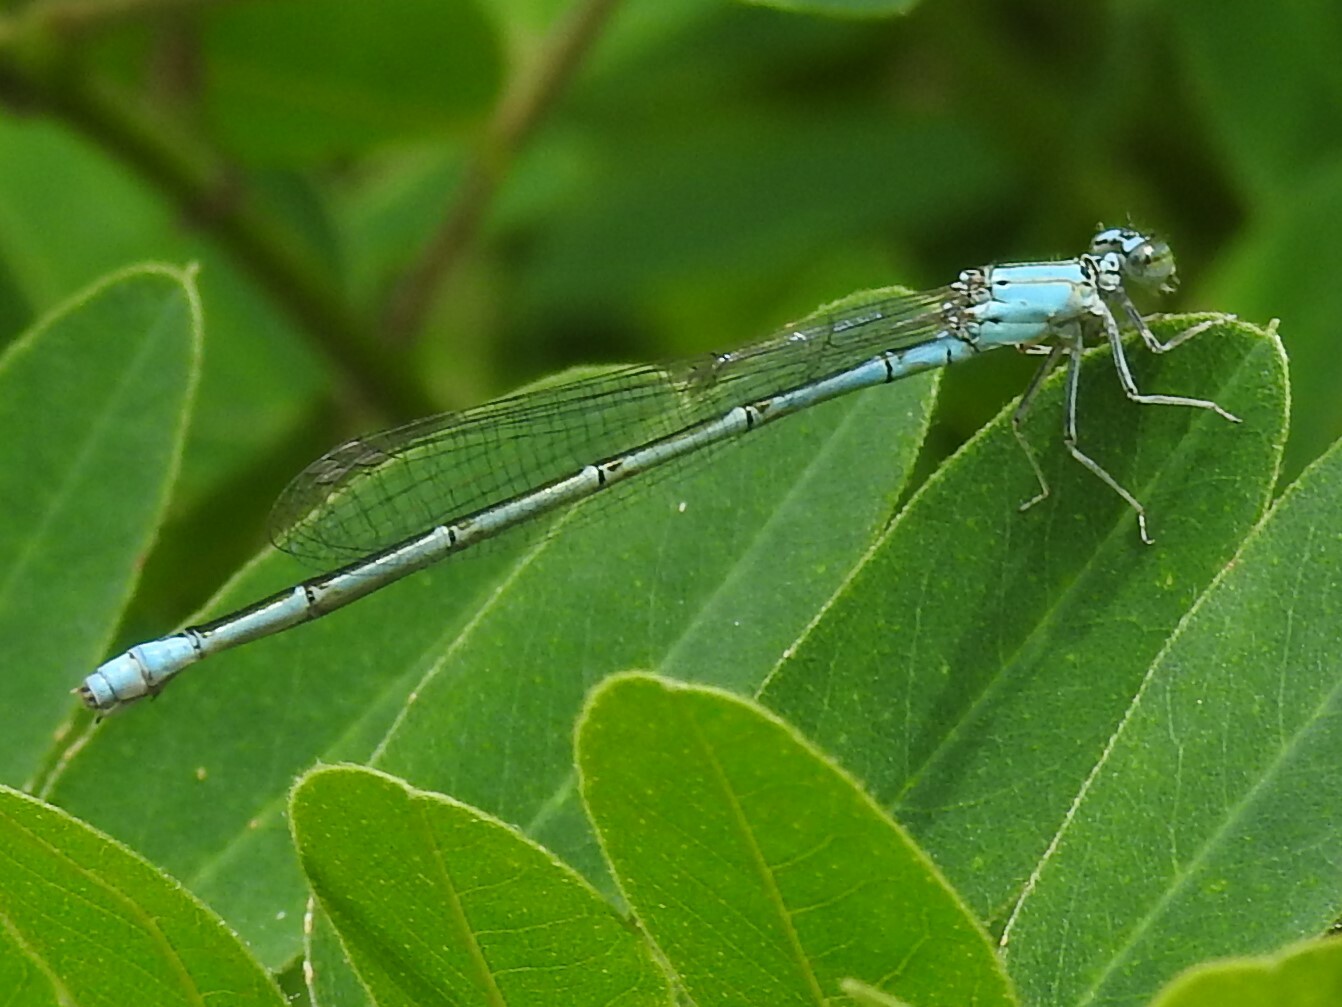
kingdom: Animalia
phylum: Arthropoda
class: Insecta
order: Odonata
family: Coenagrionidae
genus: Enallagma
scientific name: Enallagma traviatum
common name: Slender bluet
